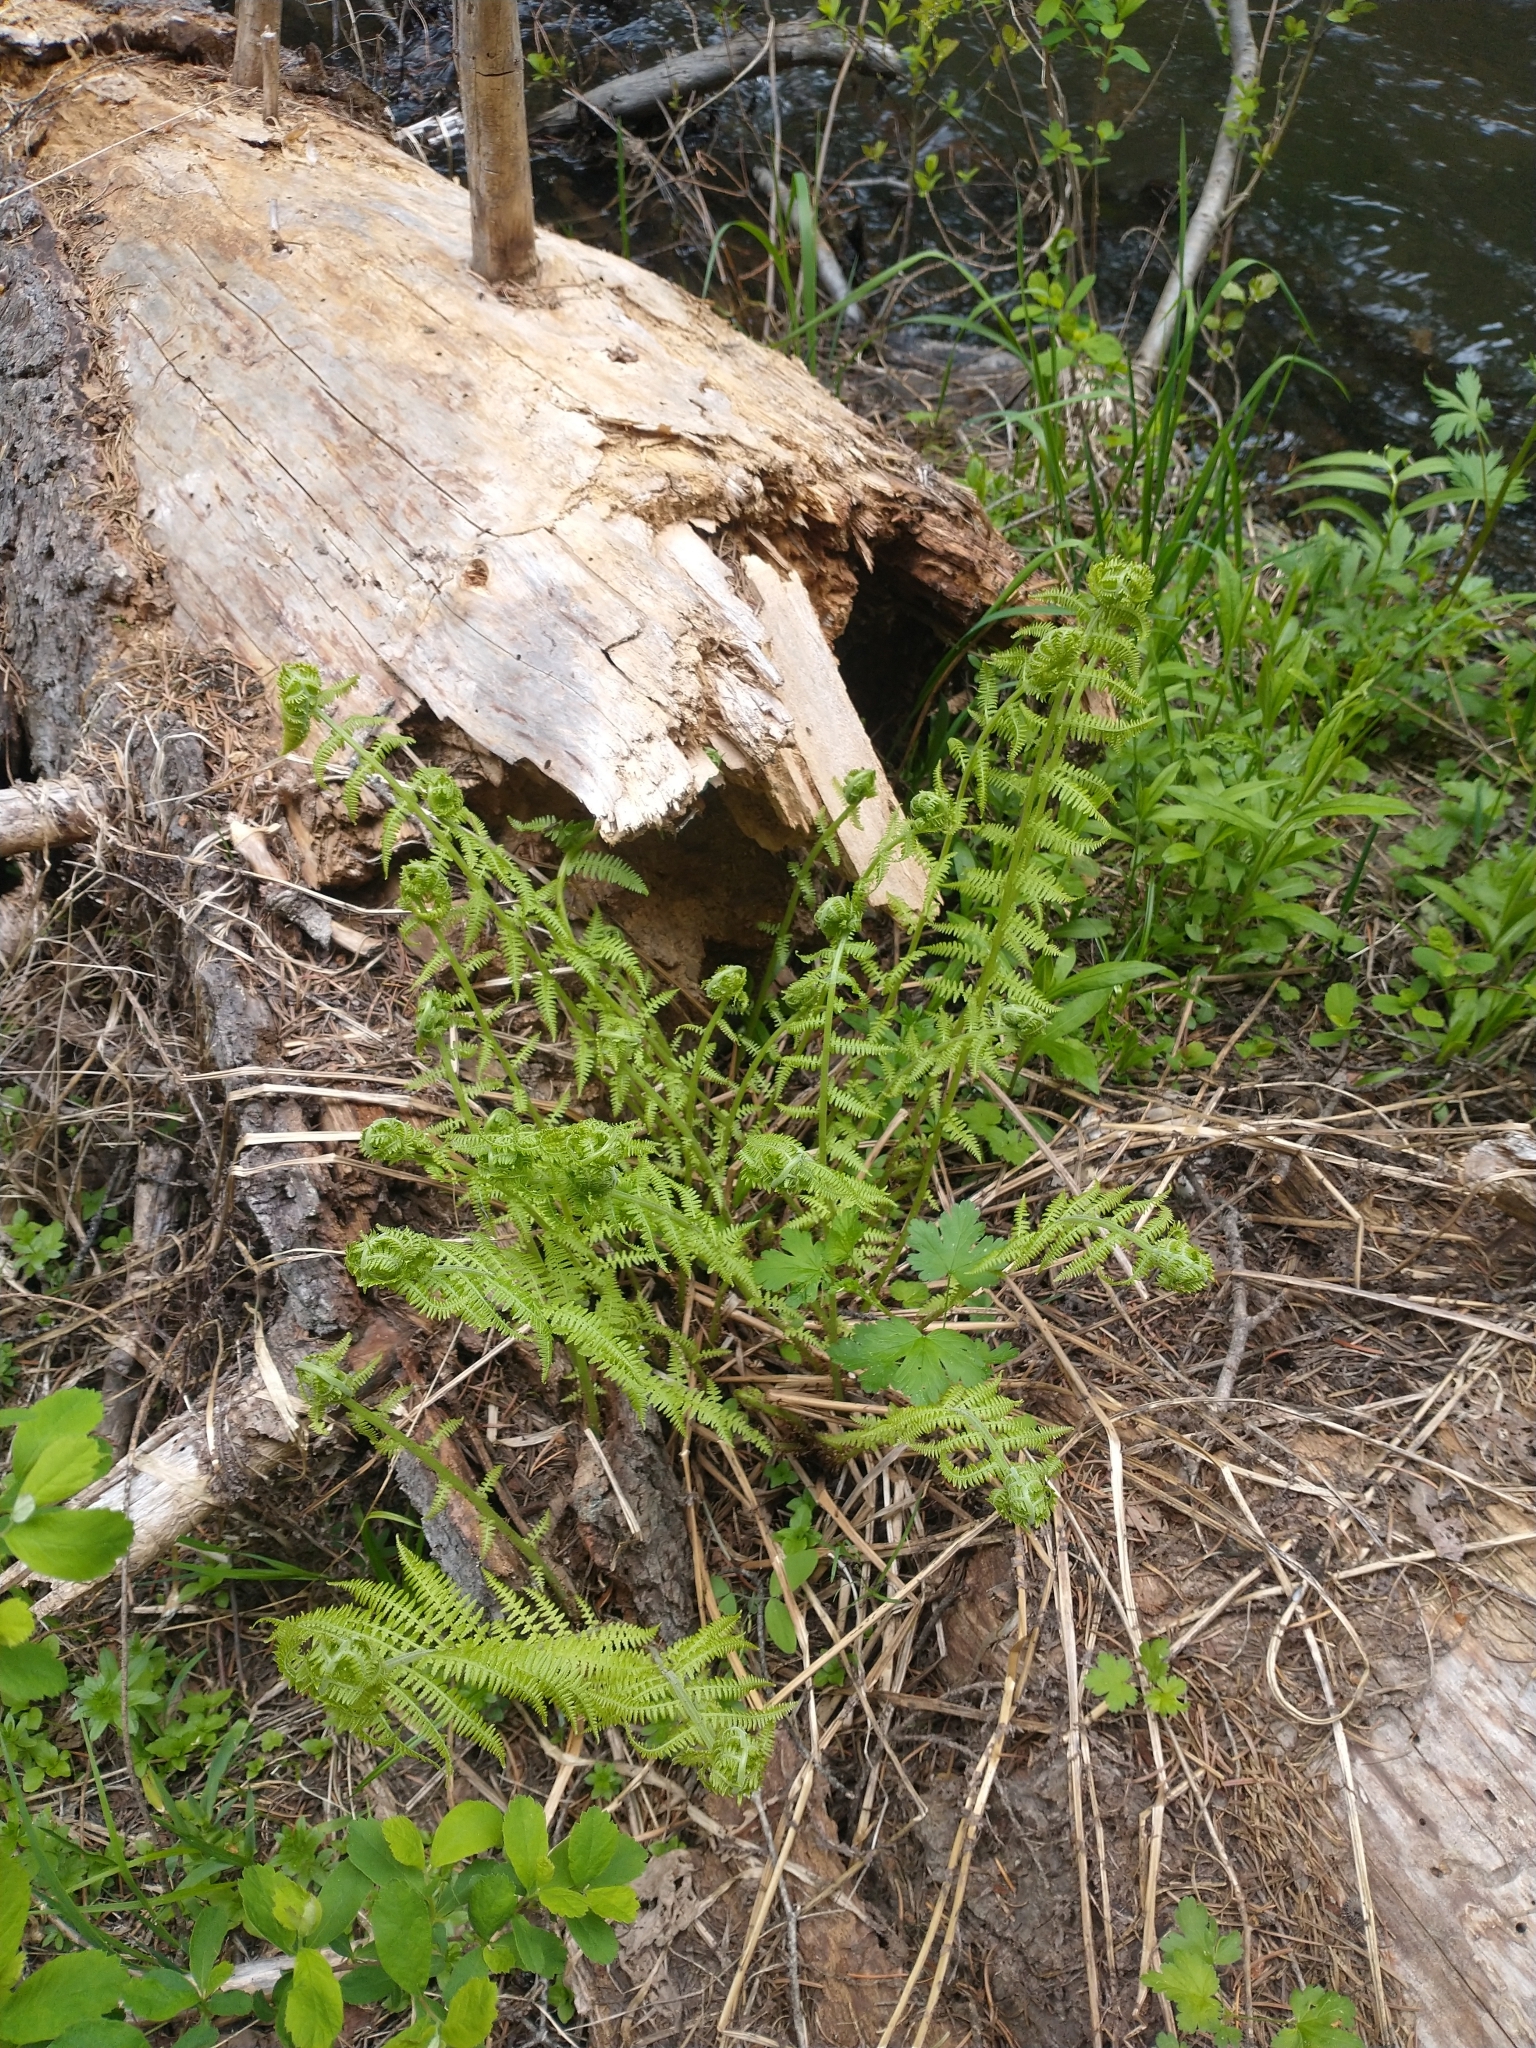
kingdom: Plantae
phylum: Tracheophyta
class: Polypodiopsida
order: Polypodiales
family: Athyriaceae
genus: Athyrium
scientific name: Athyrium cyclosorum
